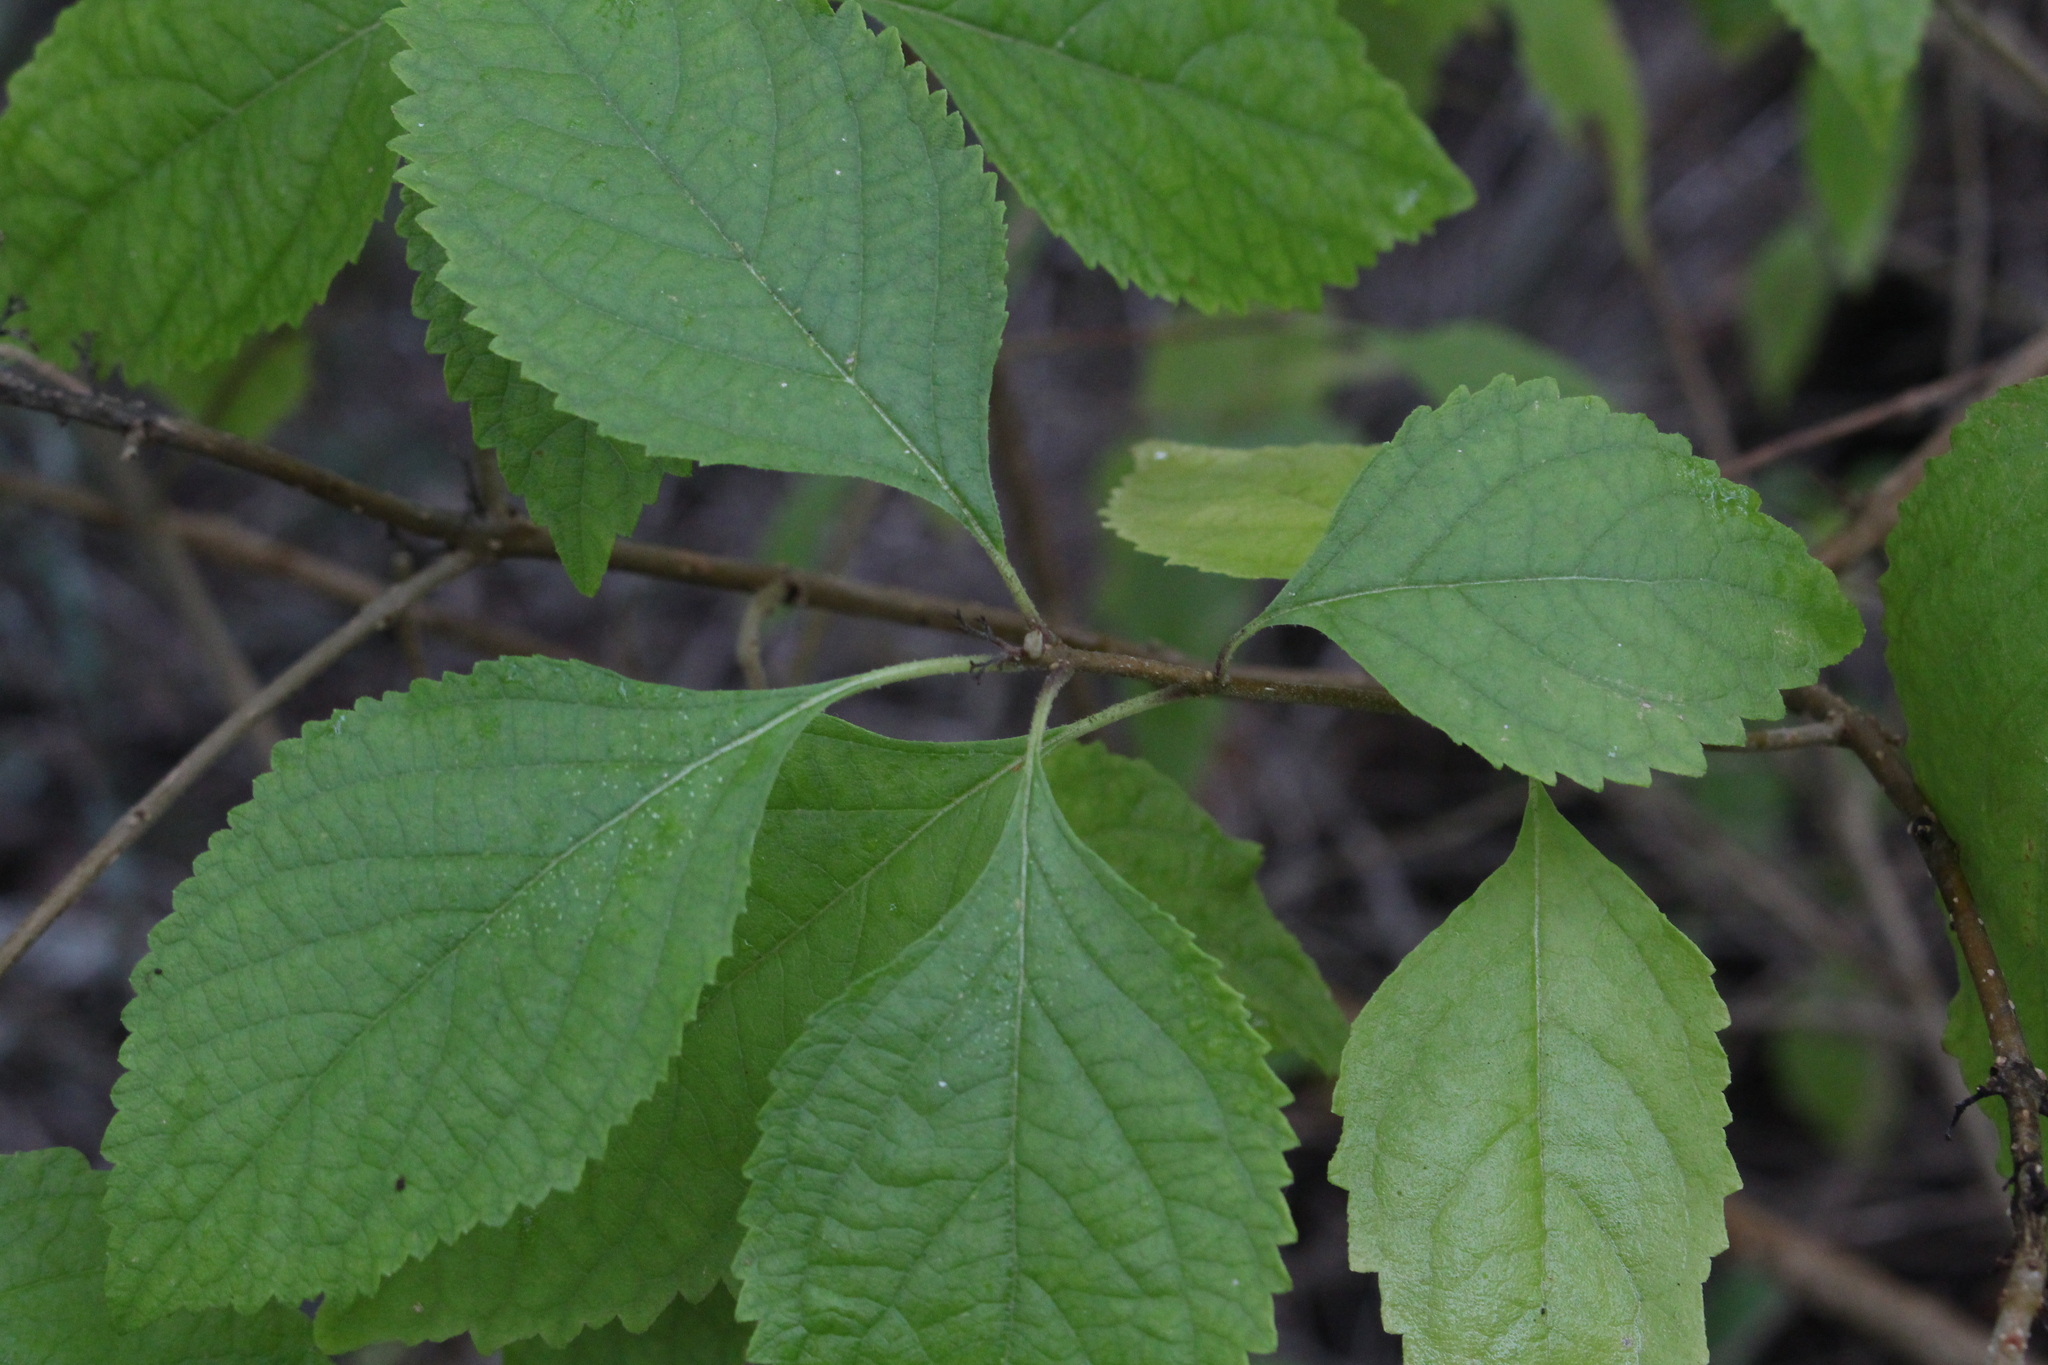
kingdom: Plantae
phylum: Tracheophyta
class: Magnoliopsida
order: Lamiales
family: Lamiaceae
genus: Callicarpa
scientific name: Callicarpa americana
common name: American beautyberry
